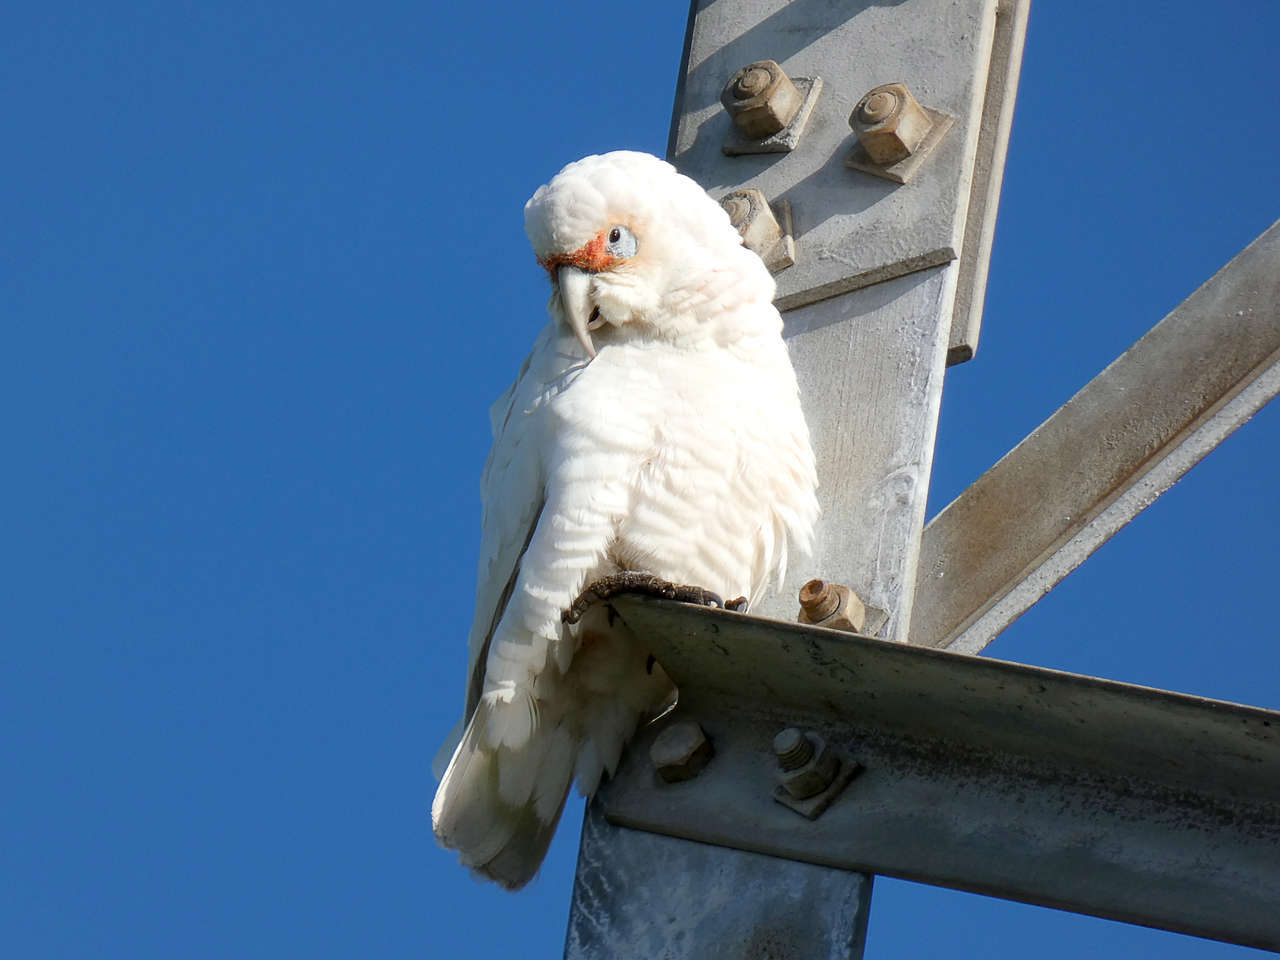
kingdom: Animalia
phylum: Chordata
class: Aves
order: Psittaciformes
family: Psittacidae
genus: Cacatua
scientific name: Cacatua tenuirostris
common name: Long-billed corella
